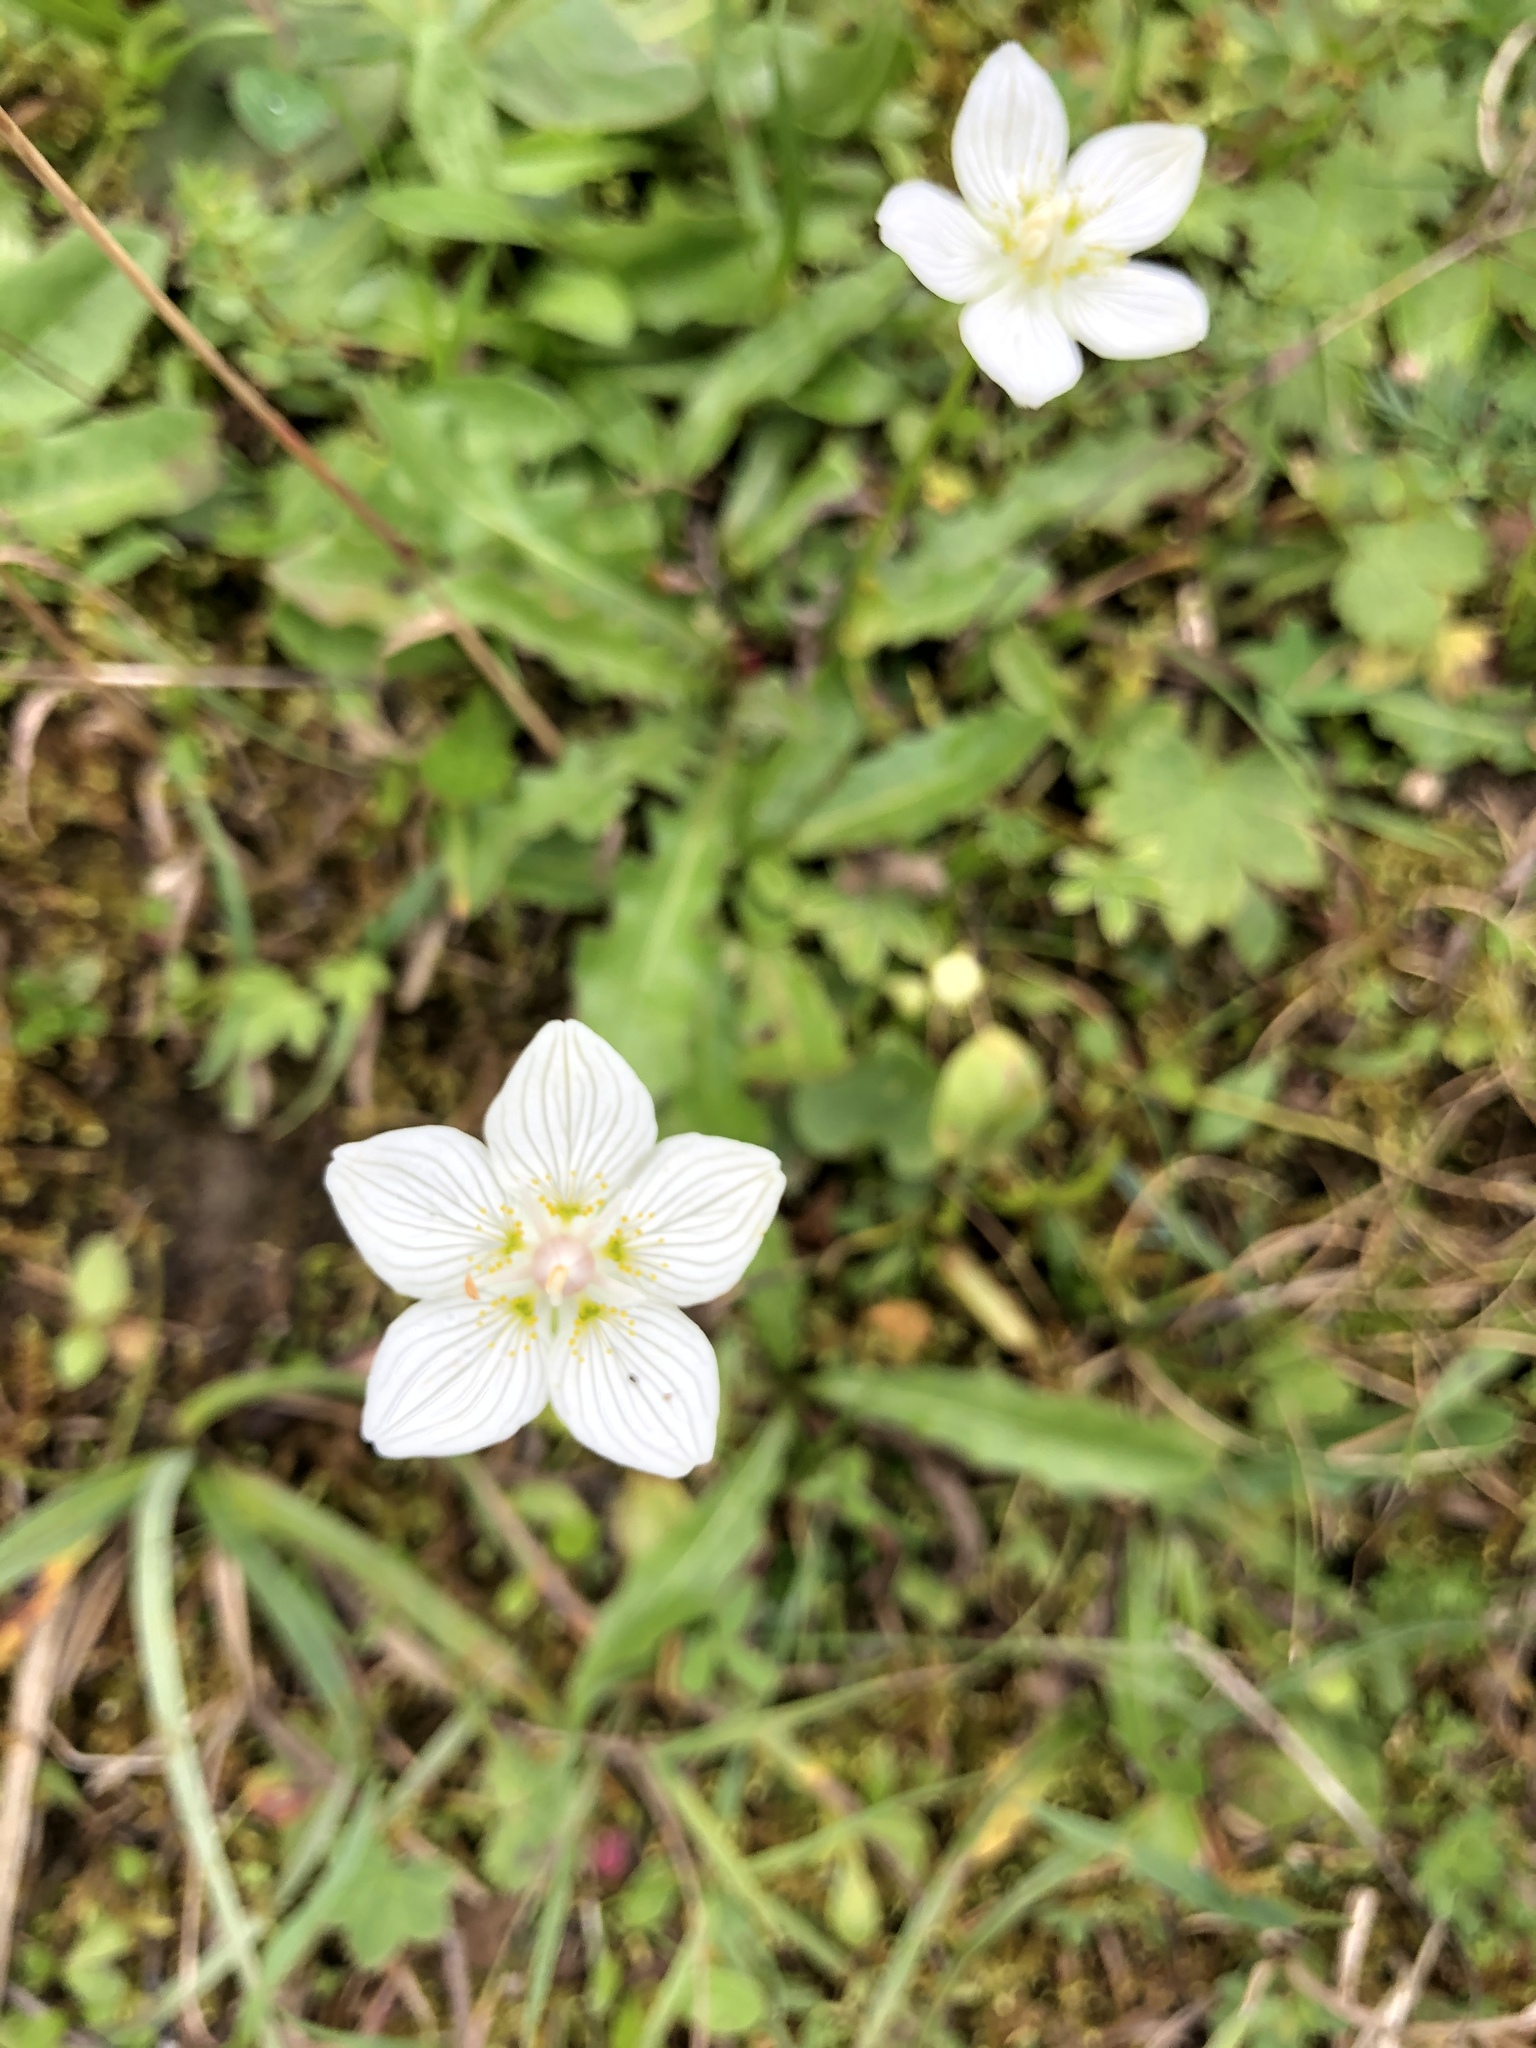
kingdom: Plantae
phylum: Tracheophyta
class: Magnoliopsida
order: Celastrales
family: Parnassiaceae
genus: Parnassia
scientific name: Parnassia palustris
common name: Grass-of-parnassus
